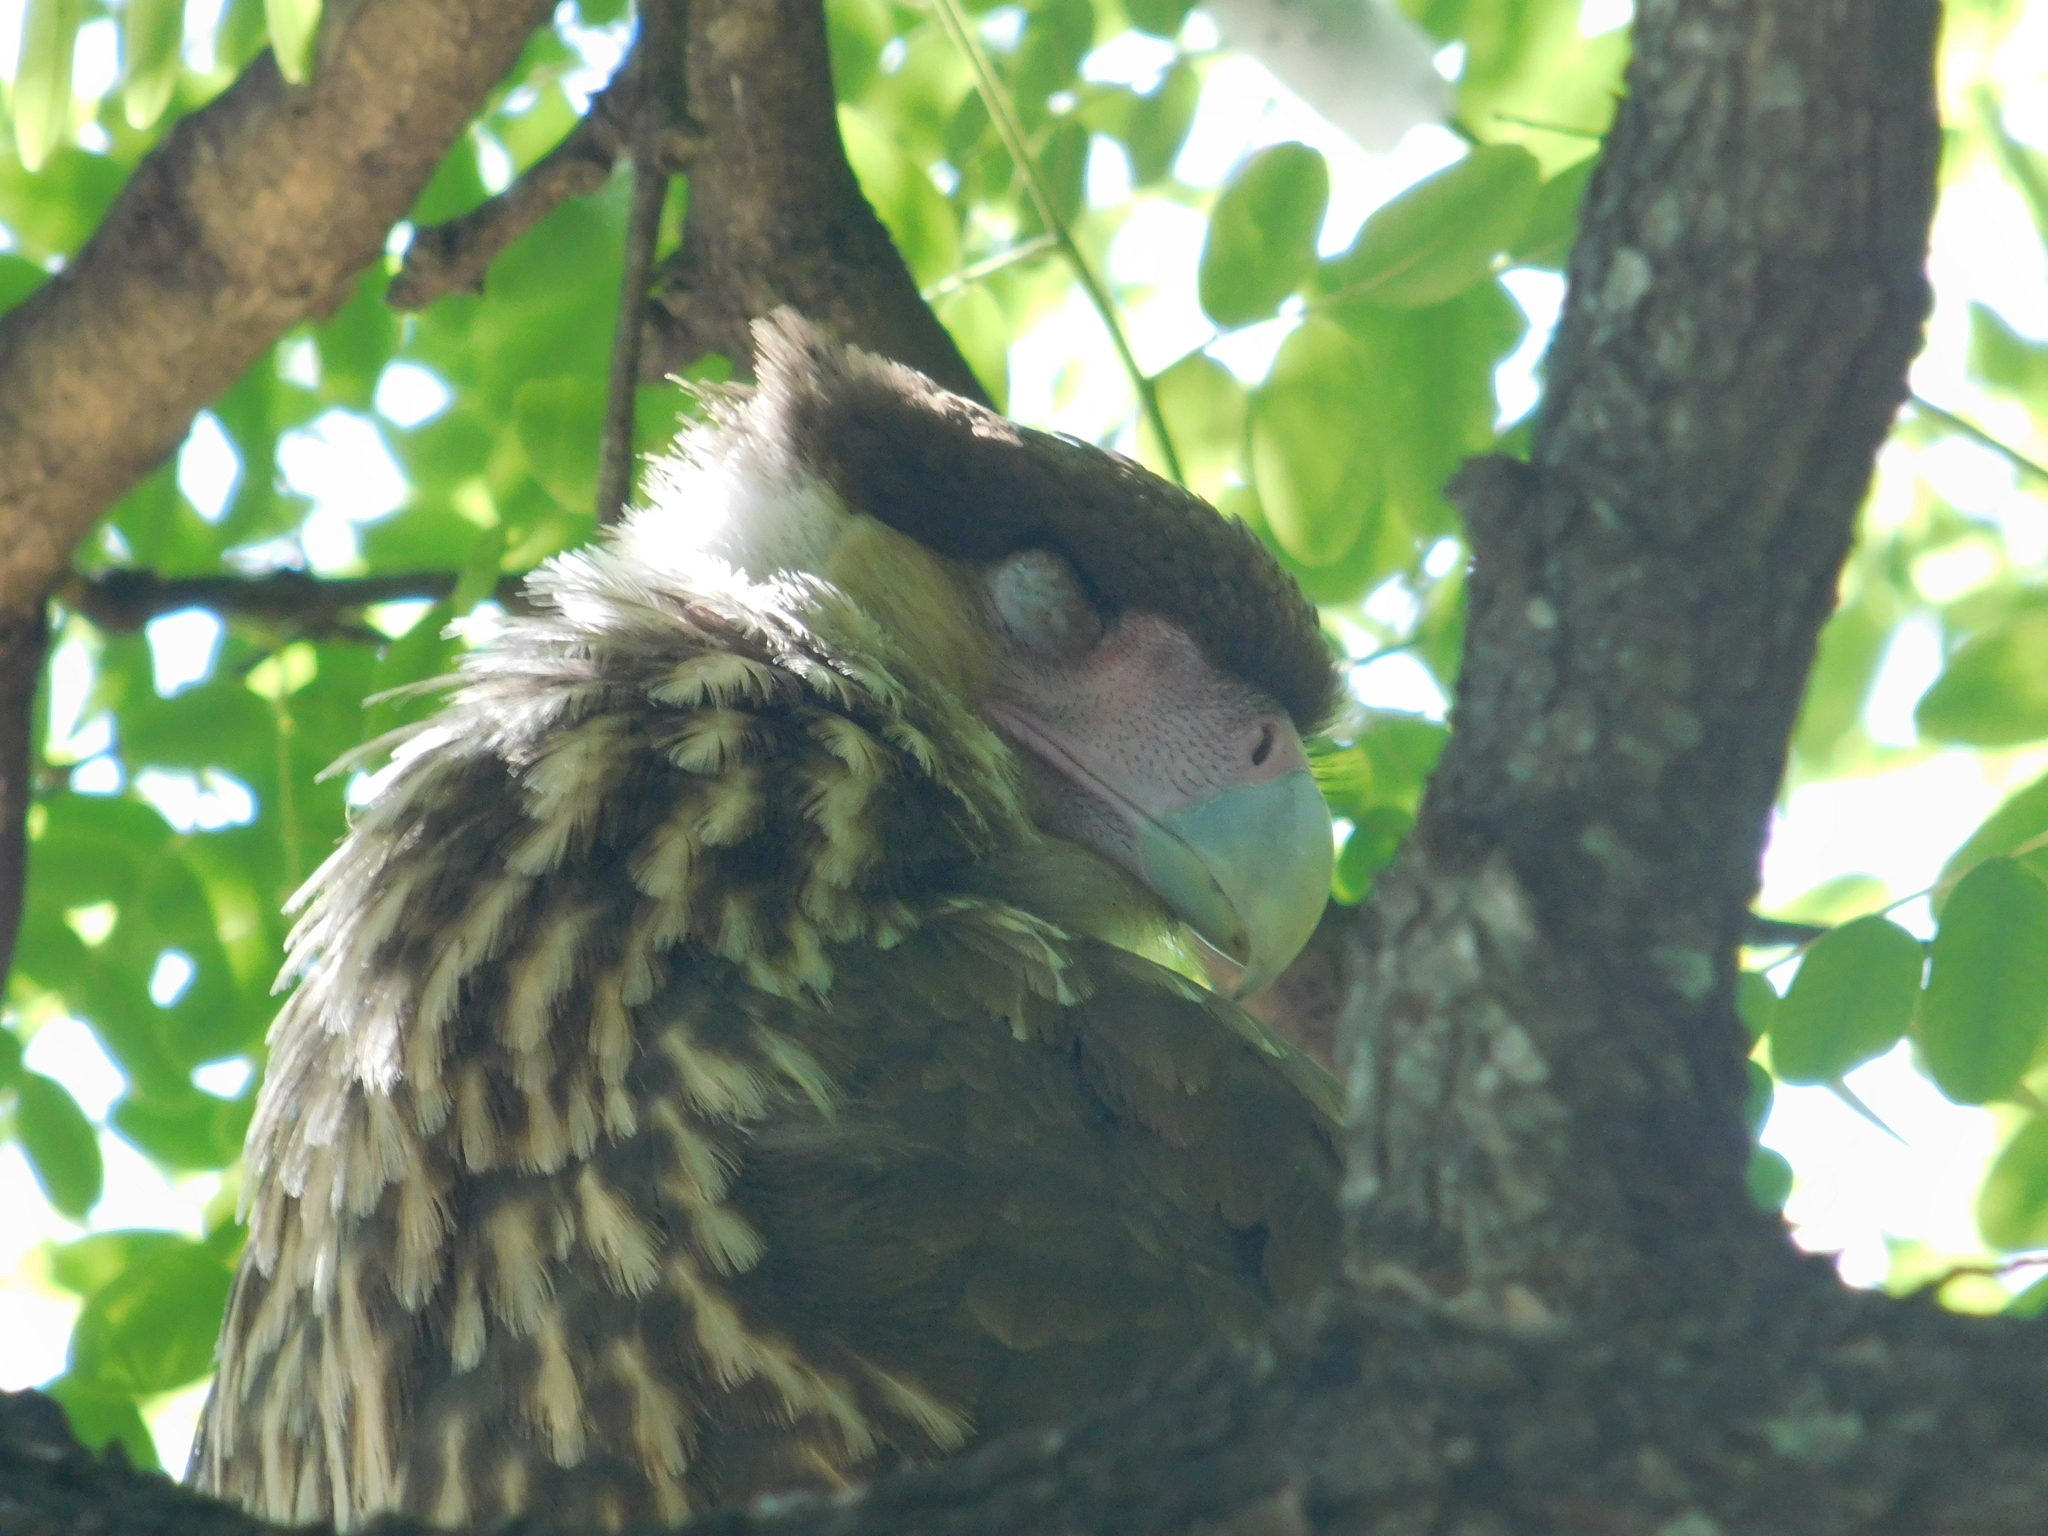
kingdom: Animalia
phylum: Chordata
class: Aves
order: Falconiformes
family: Falconidae
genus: Caracara
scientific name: Caracara plancus
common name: Southern caracara
